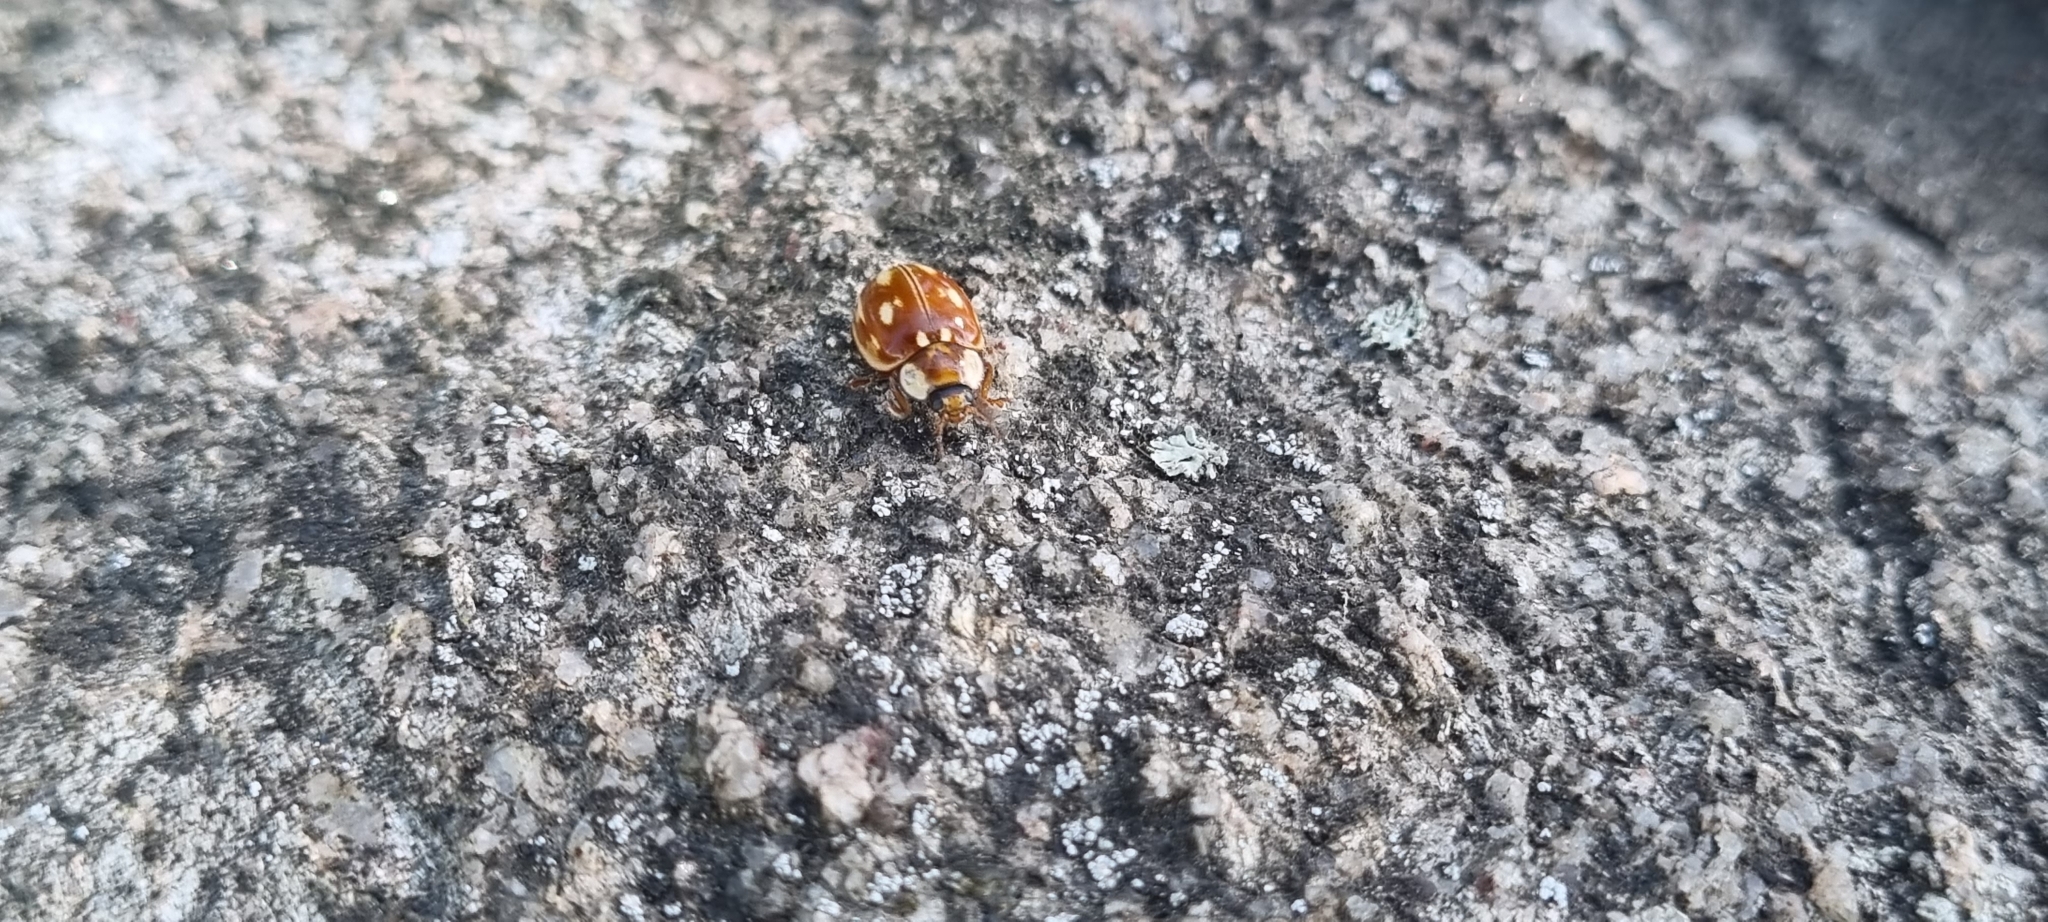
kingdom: Animalia
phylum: Arthropoda
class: Insecta
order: Coleoptera
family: Coccinellidae
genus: Myzia
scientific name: Myzia oblongoguttata
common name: Striped ladybird
